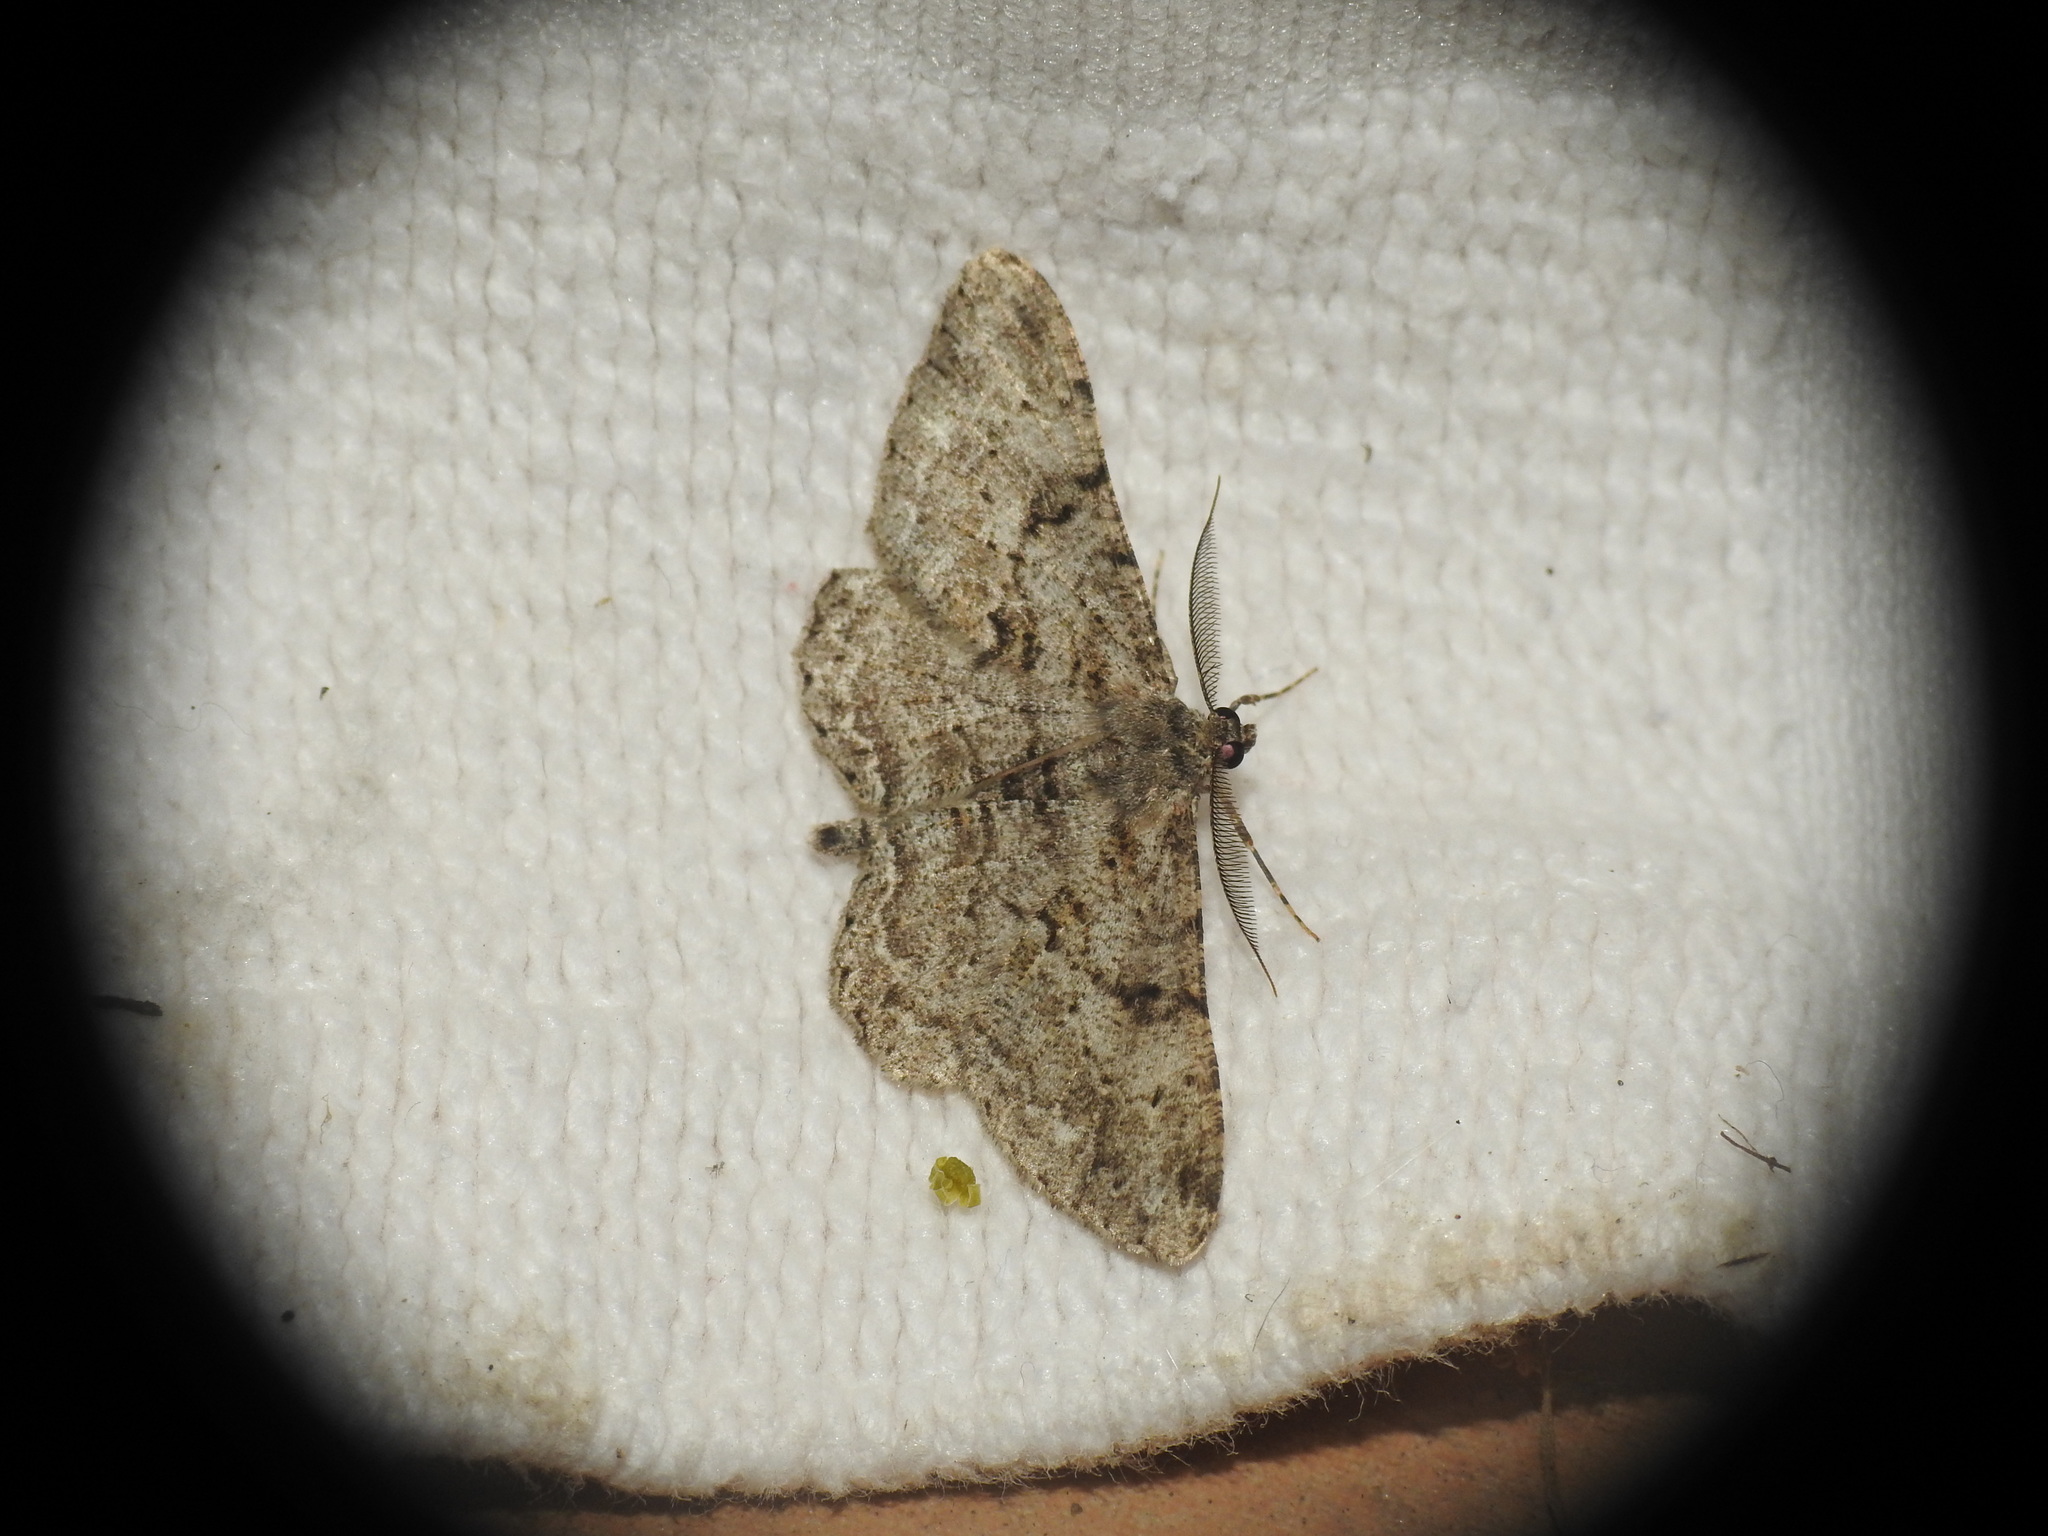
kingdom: Animalia
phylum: Arthropoda
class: Insecta
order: Lepidoptera
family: Geometridae
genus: Peribatodes
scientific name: Peribatodes rhomboidaria
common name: Willow beauty
